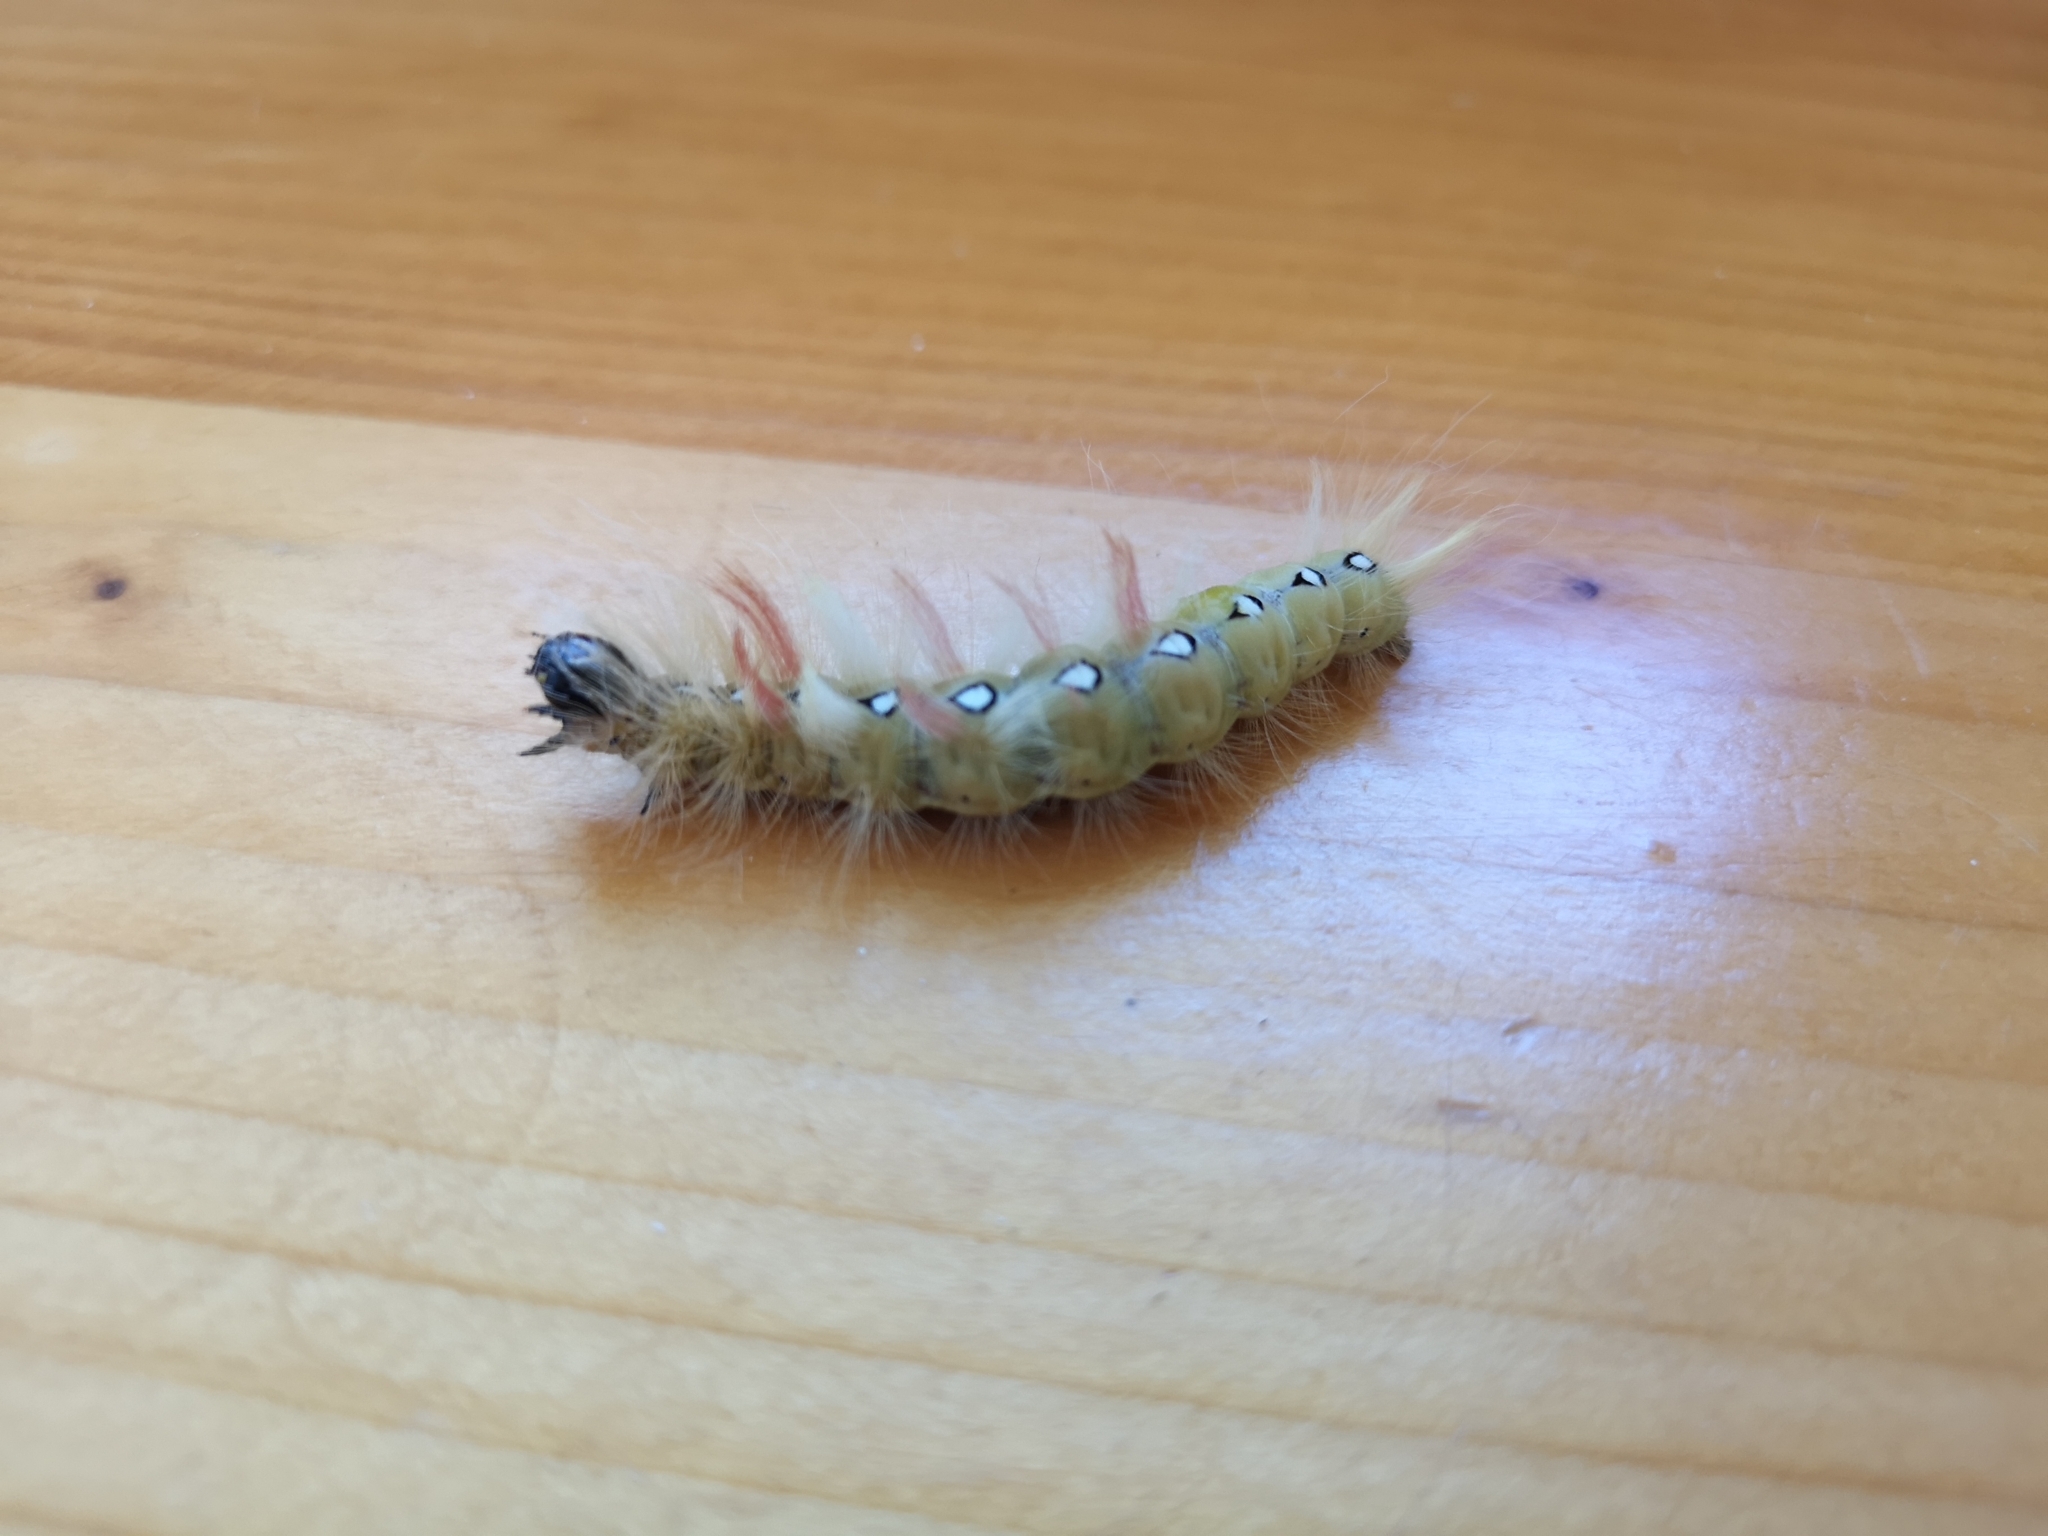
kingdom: Animalia
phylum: Arthropoda
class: Insecta
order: Lepidoptera
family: Noctuidae
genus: Acronicta
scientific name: Acronicta aceris
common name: Sycamore
